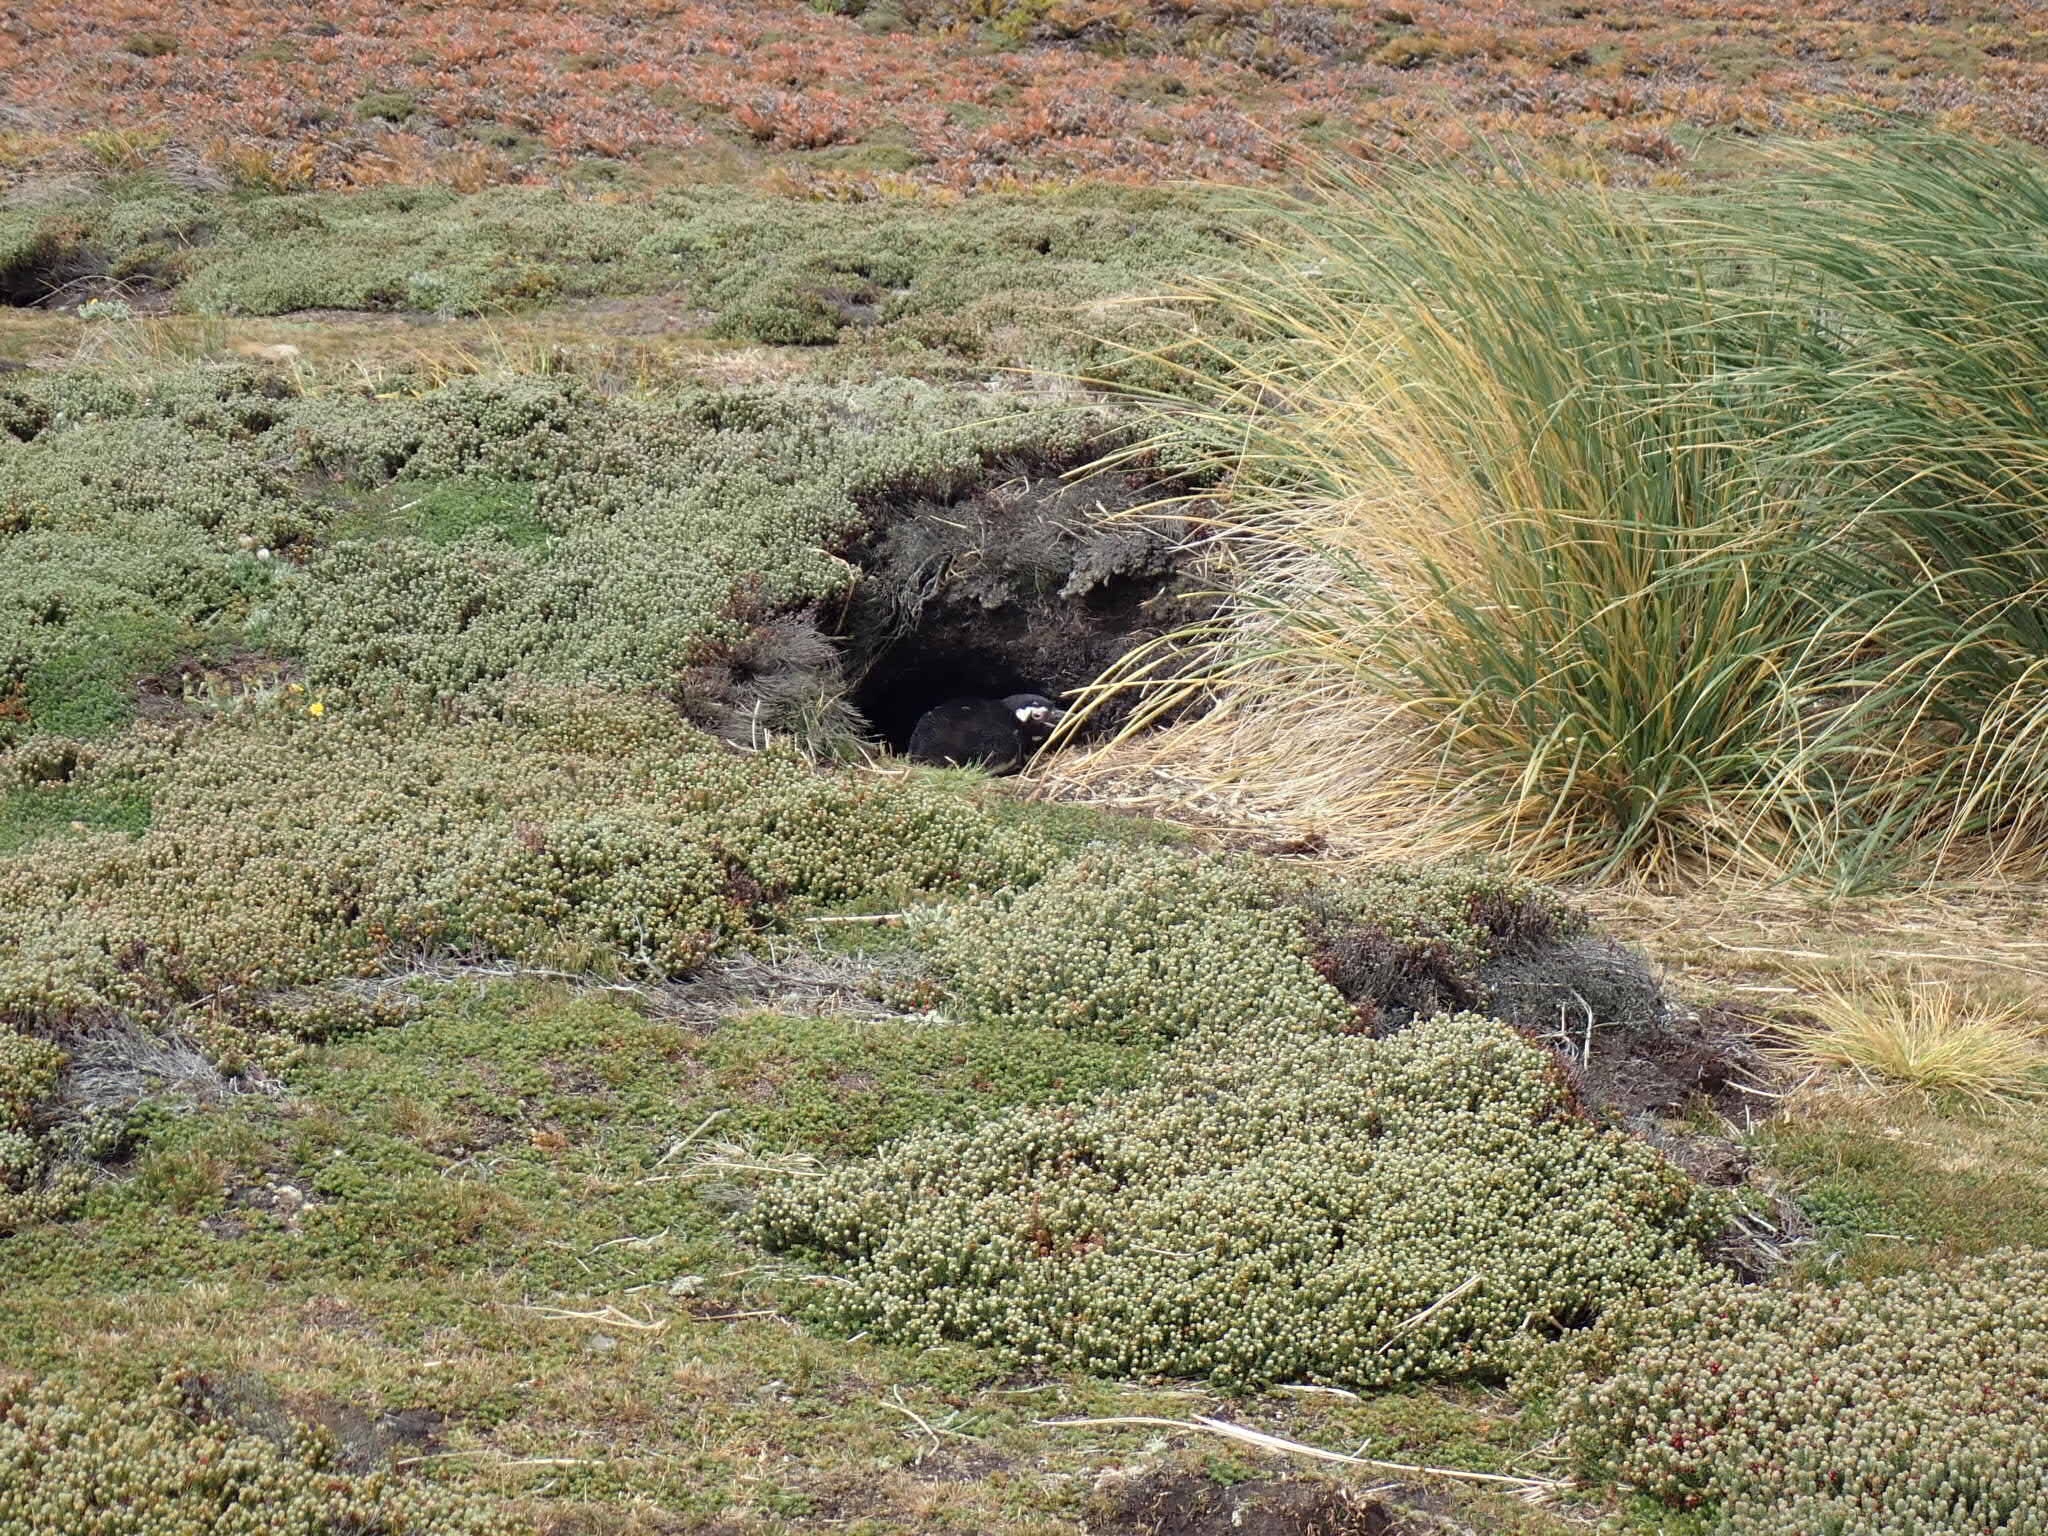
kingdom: Animalia
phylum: Chordata
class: Aves
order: Sphenisciformes
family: Spheniscidae
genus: Spheniscus
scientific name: Spheniscus magellanicus
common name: Magellanic penguin
